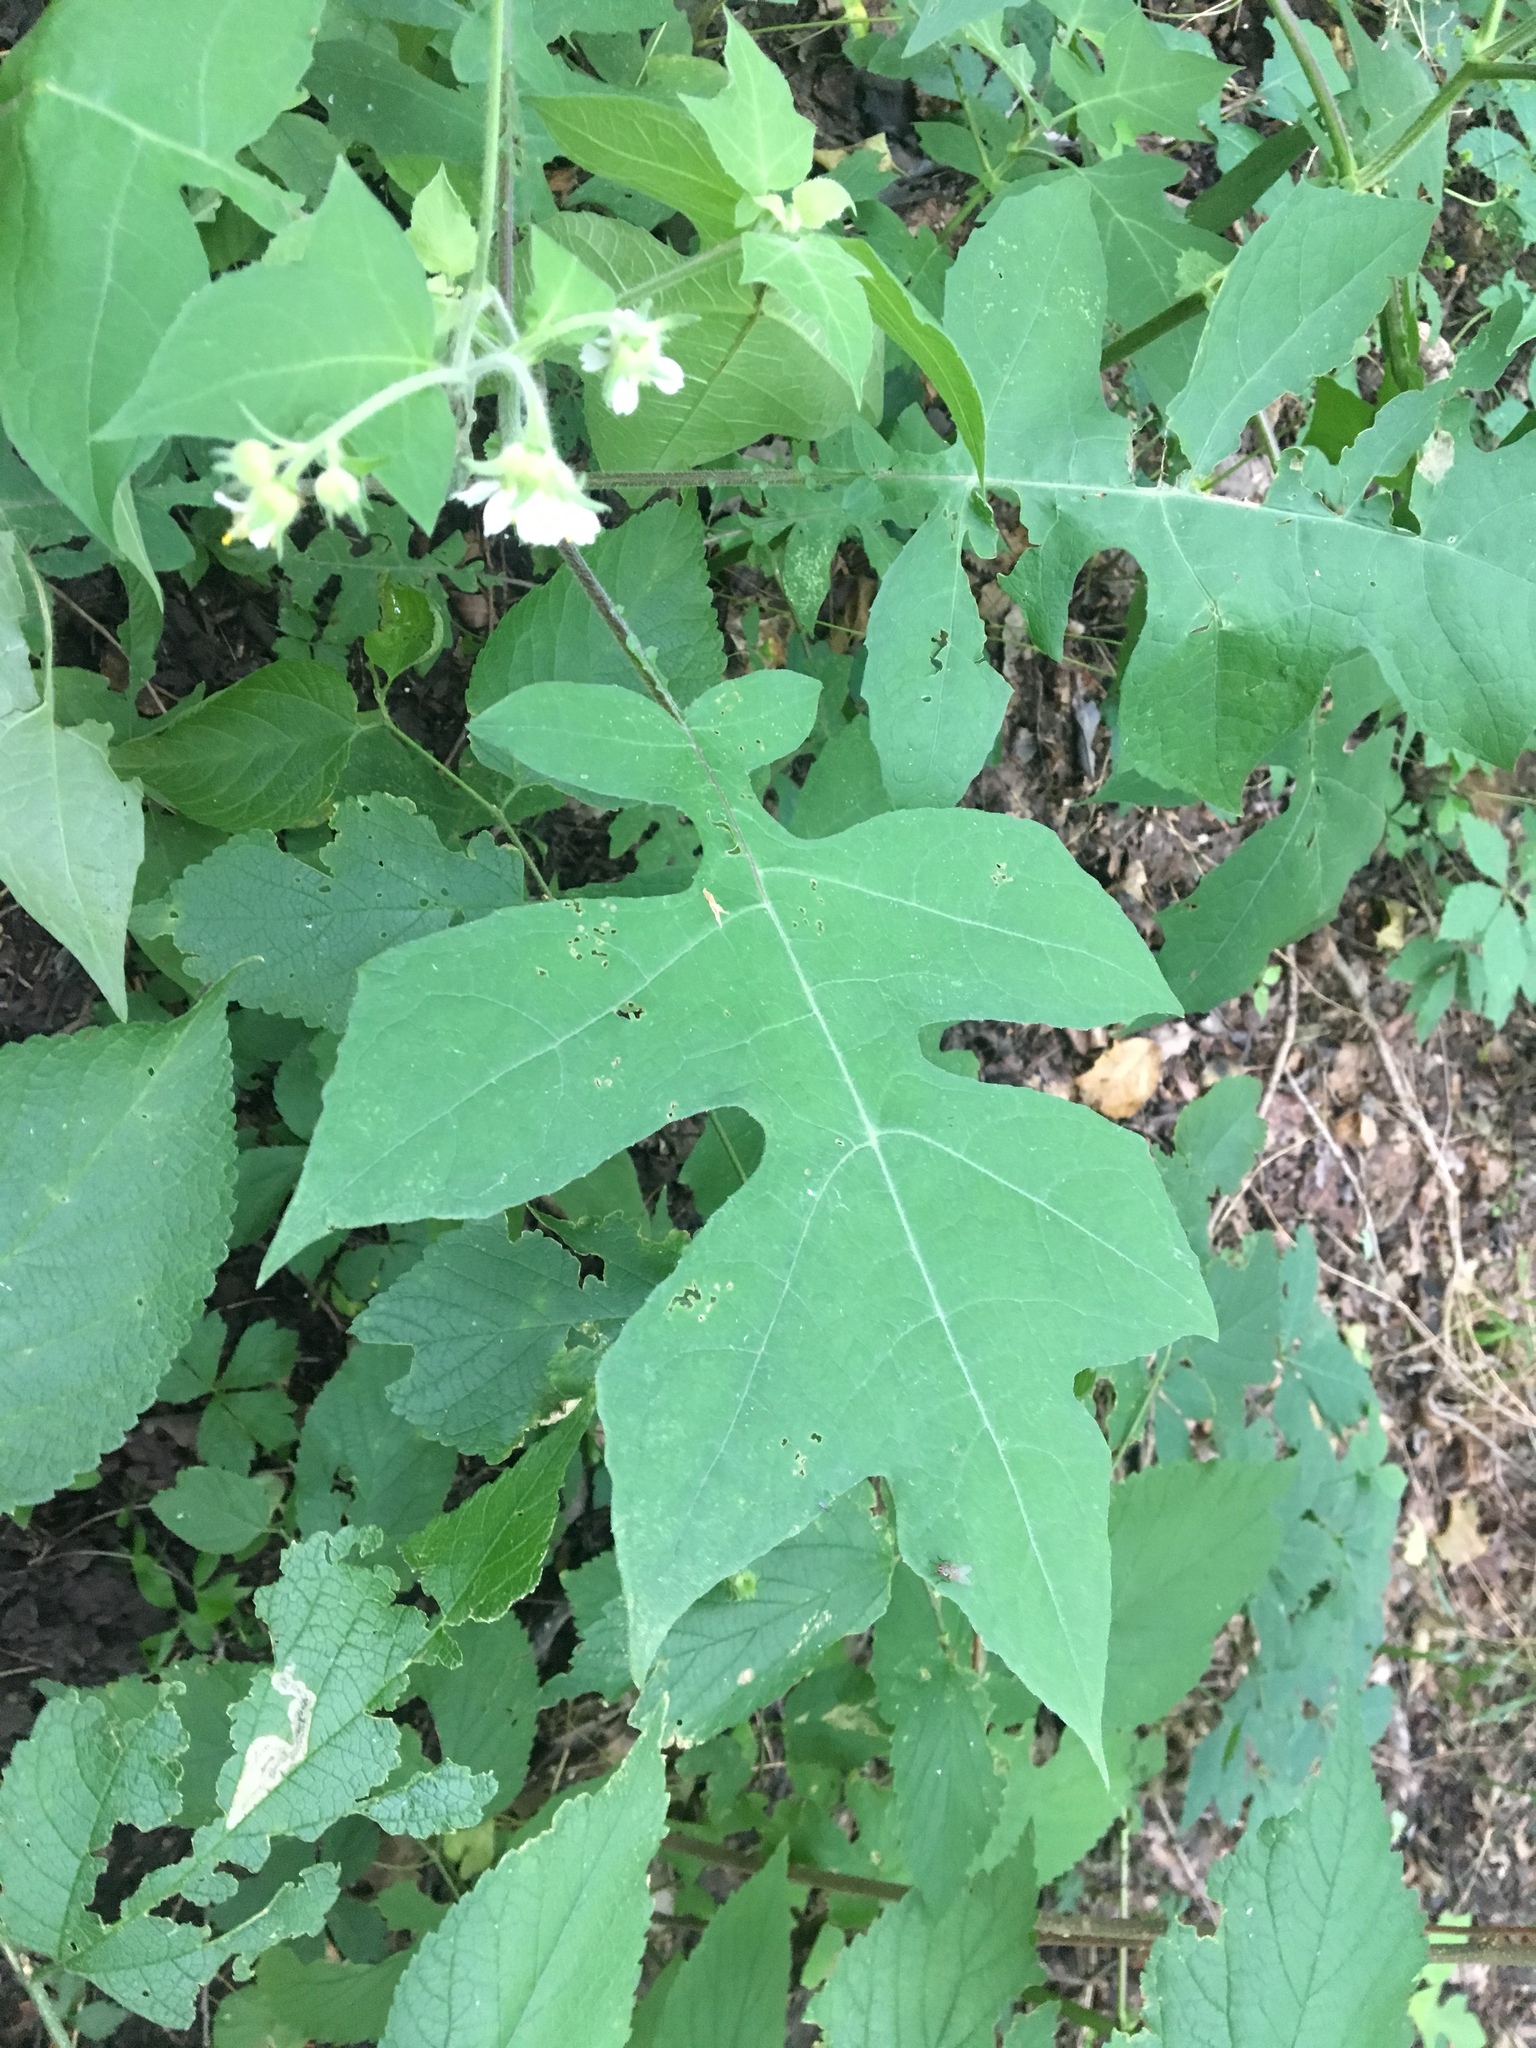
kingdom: Plantae
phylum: Tracheophyta
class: Magnoliopsida
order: Asterales
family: Asteraceae
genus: Polymnia
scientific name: Polymnia canadensis
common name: Pale-flowered leafcup
